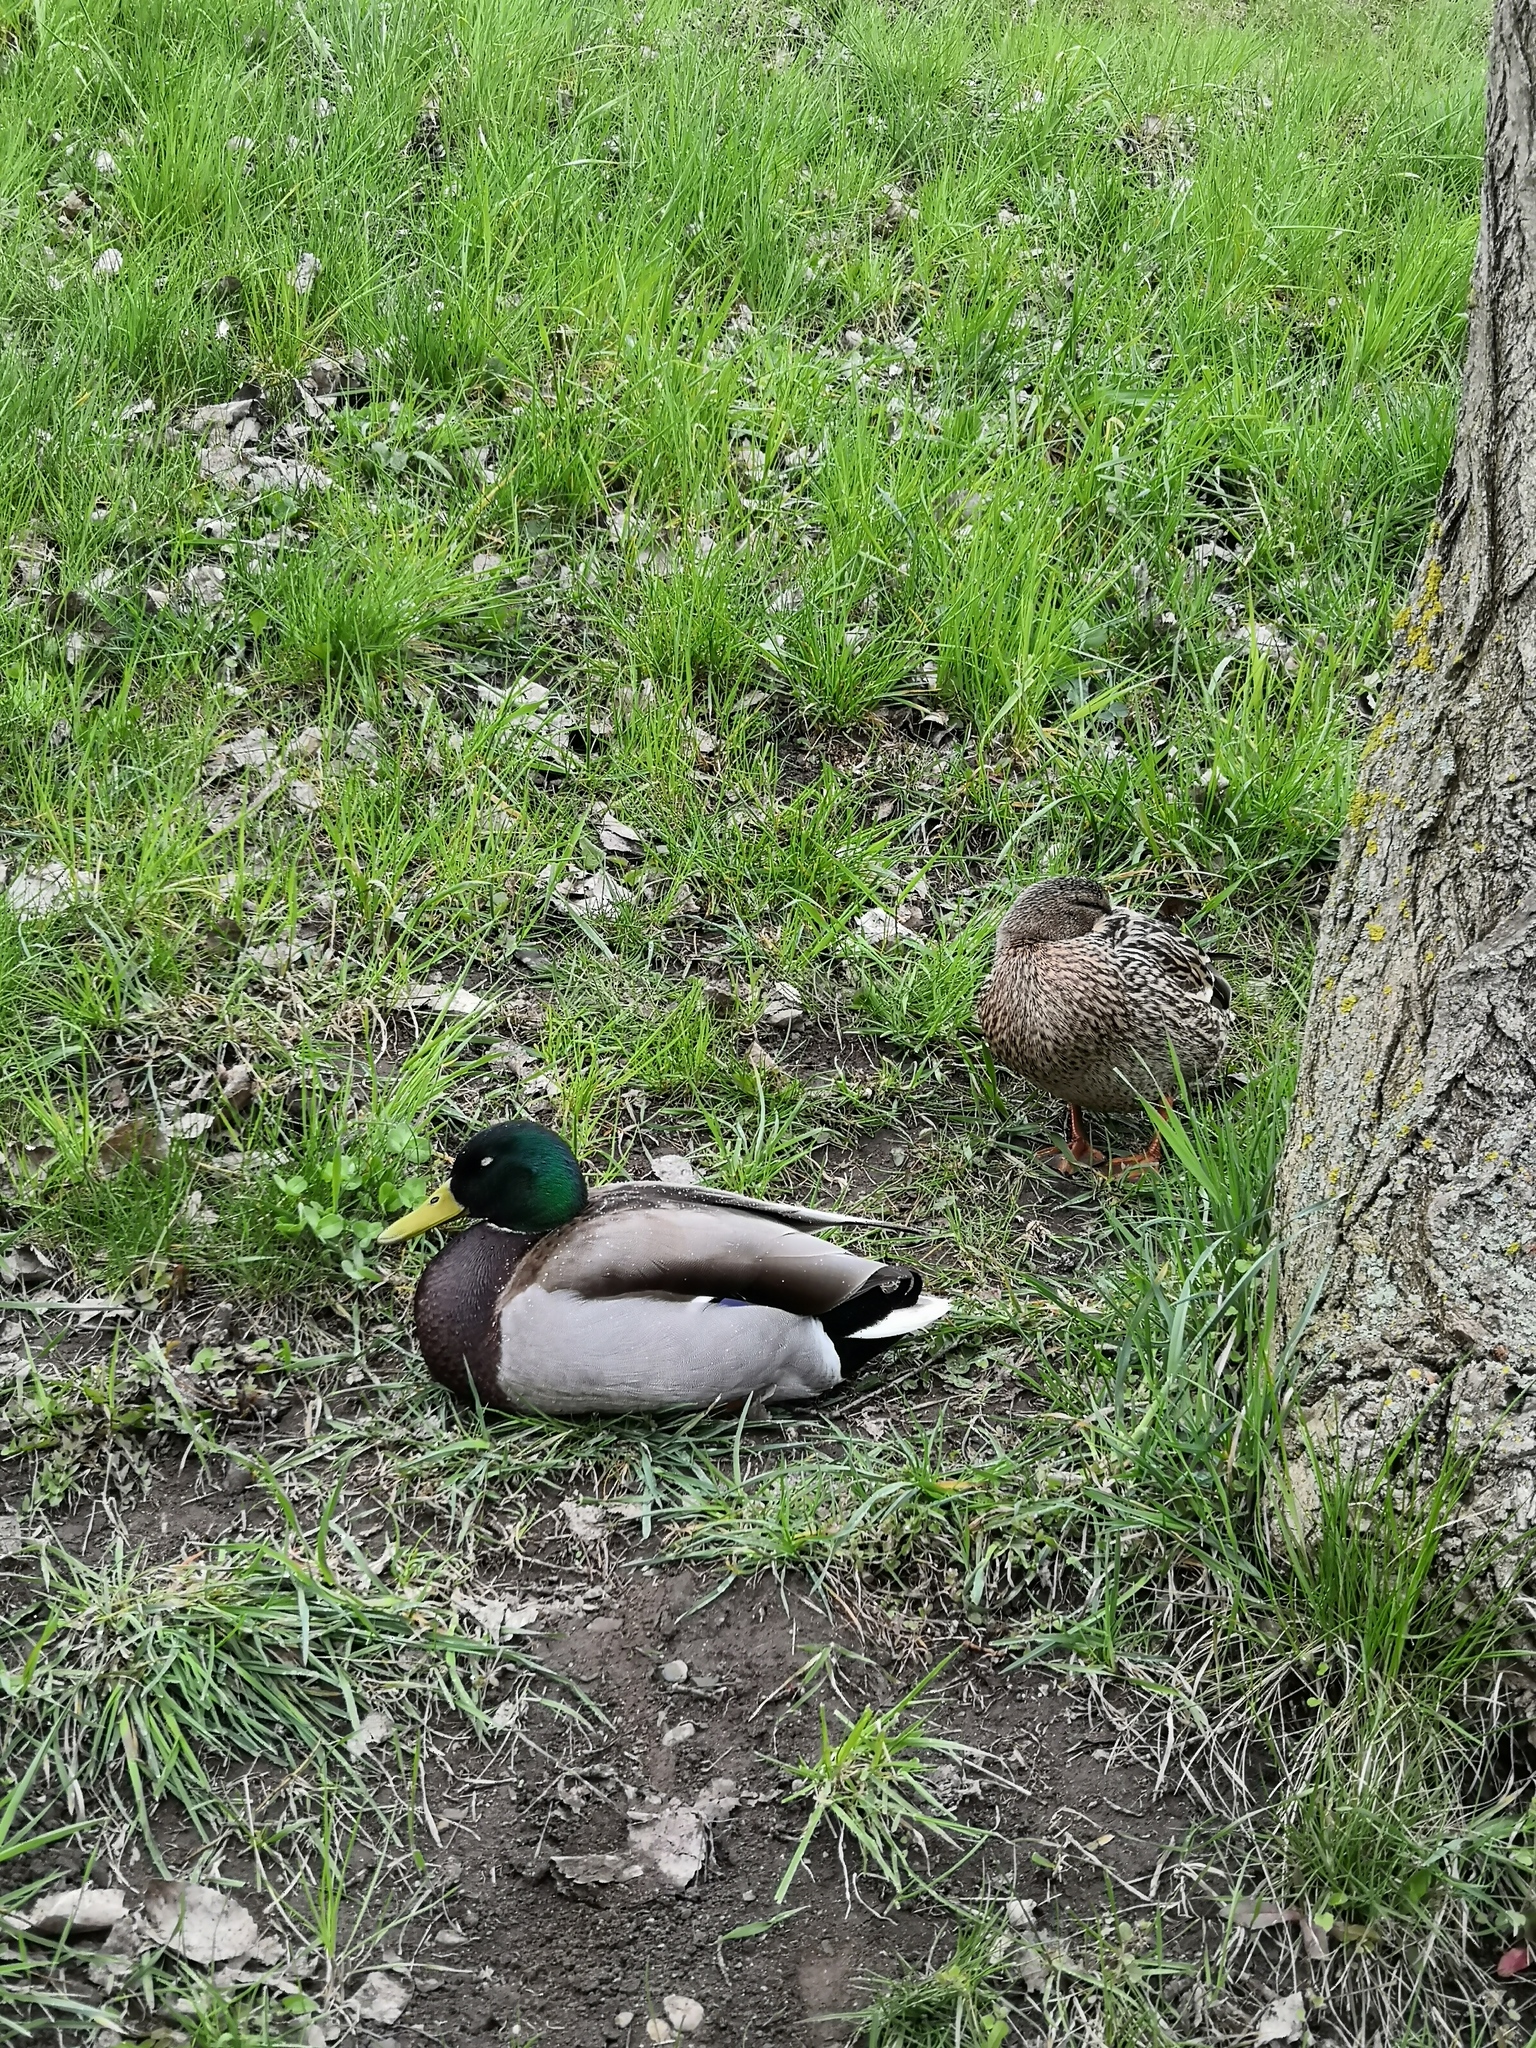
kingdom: Animalia
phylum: Chordata
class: Aves
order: Anseriformes
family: Anatidae
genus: Anas
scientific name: Anas platyrhynchos
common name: Mallard
